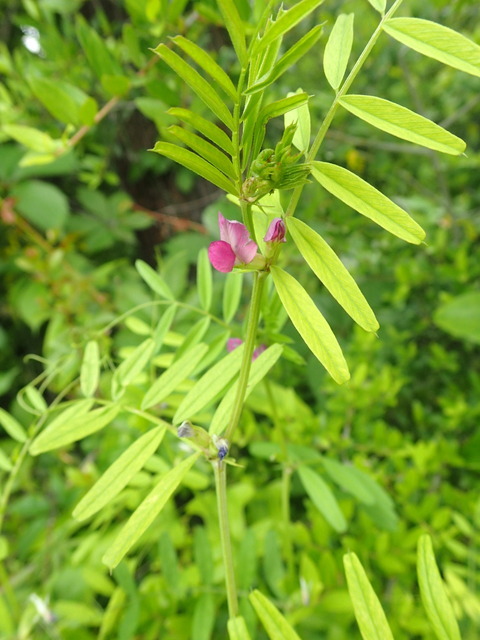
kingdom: Plantae
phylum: Tracheophyta
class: Magnoliopsida
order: Fabales
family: Fabaceae
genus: Vicia
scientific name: Vicia sativa
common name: Garden vetch
